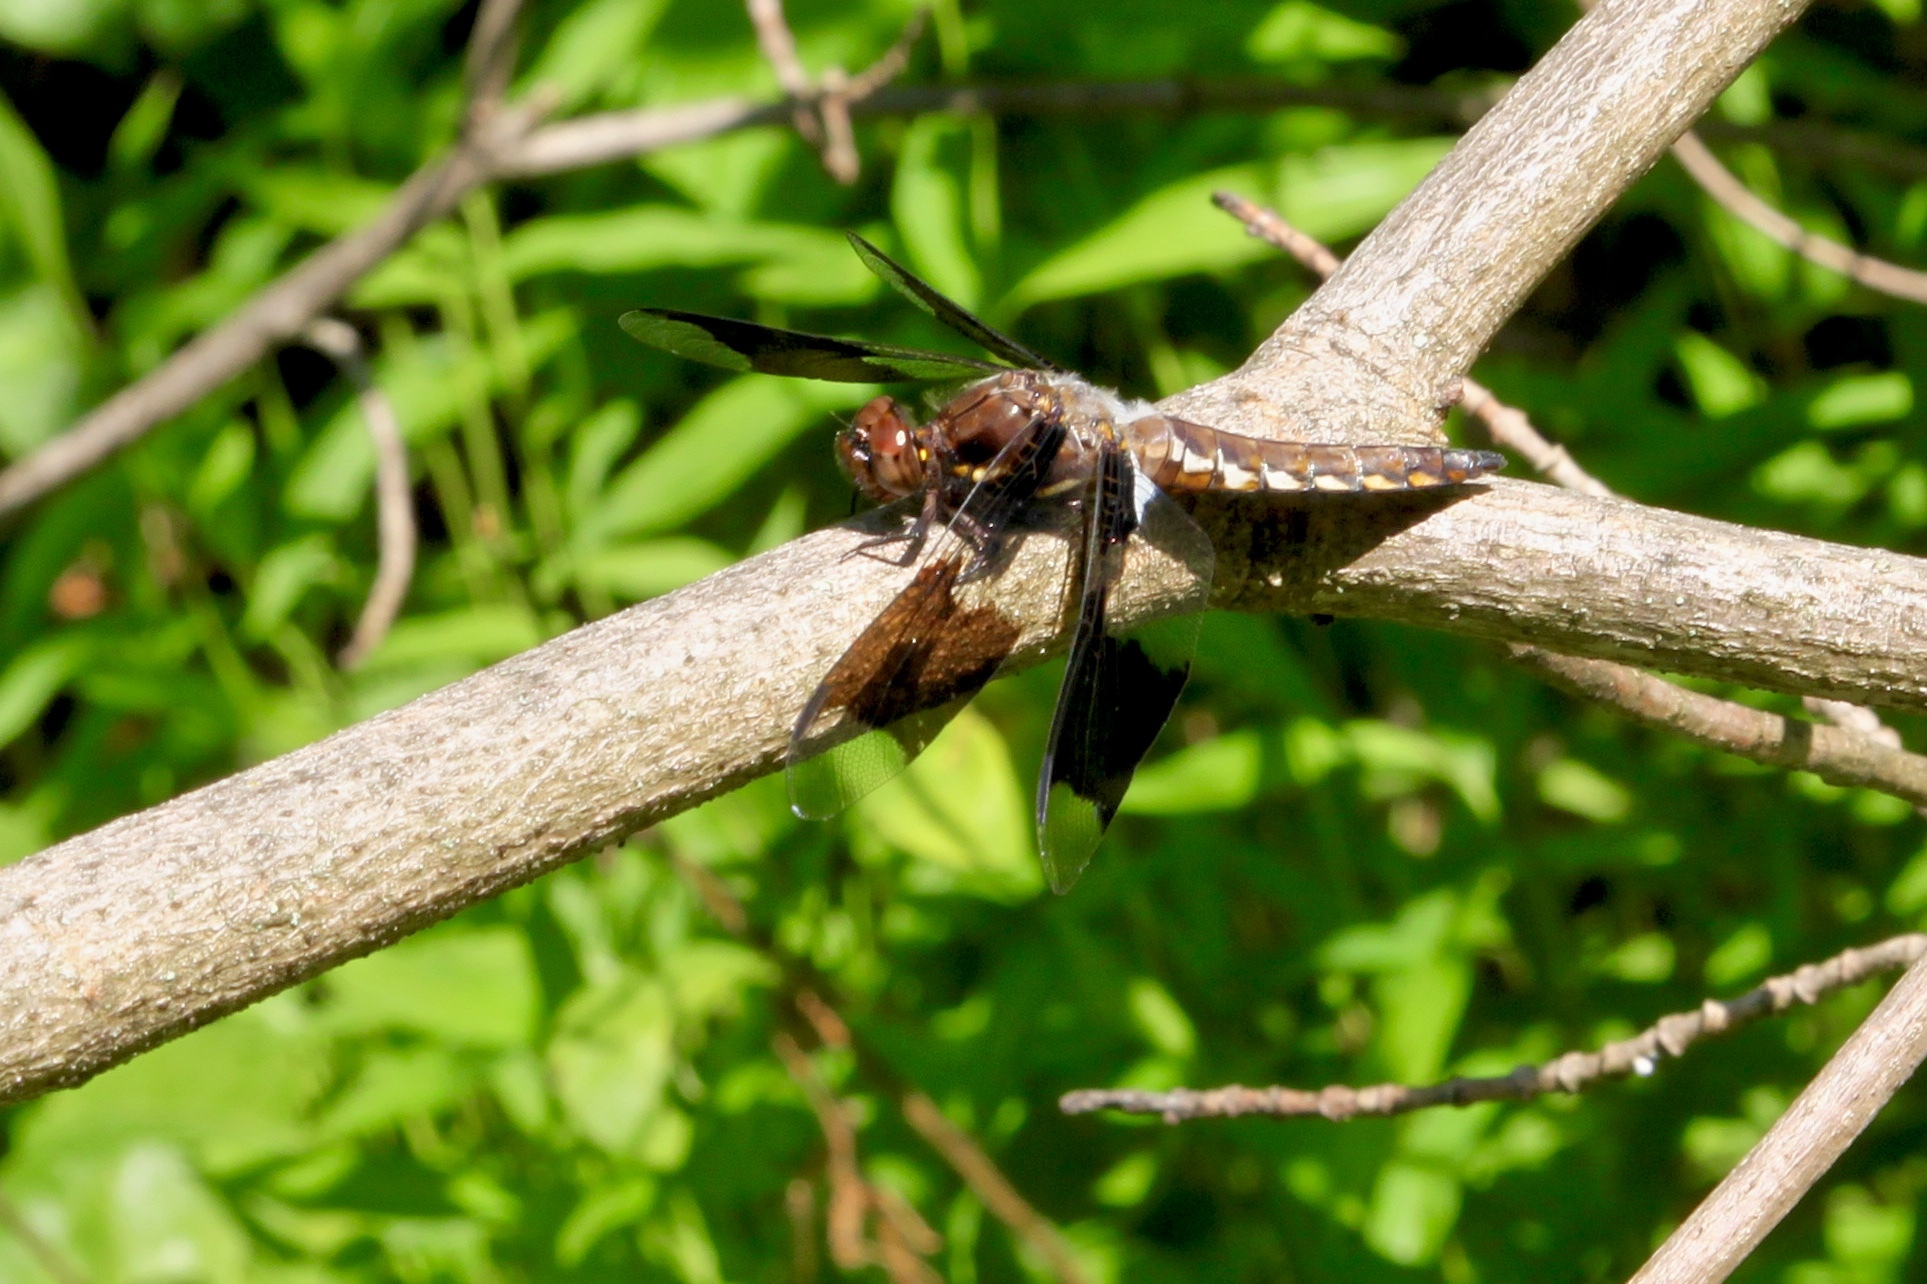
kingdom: Animalia
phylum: Arthropoda
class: Insecta
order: Odonata
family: Libellulidae
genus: Plathemis
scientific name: Plathemis lydia
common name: Common whitetail
